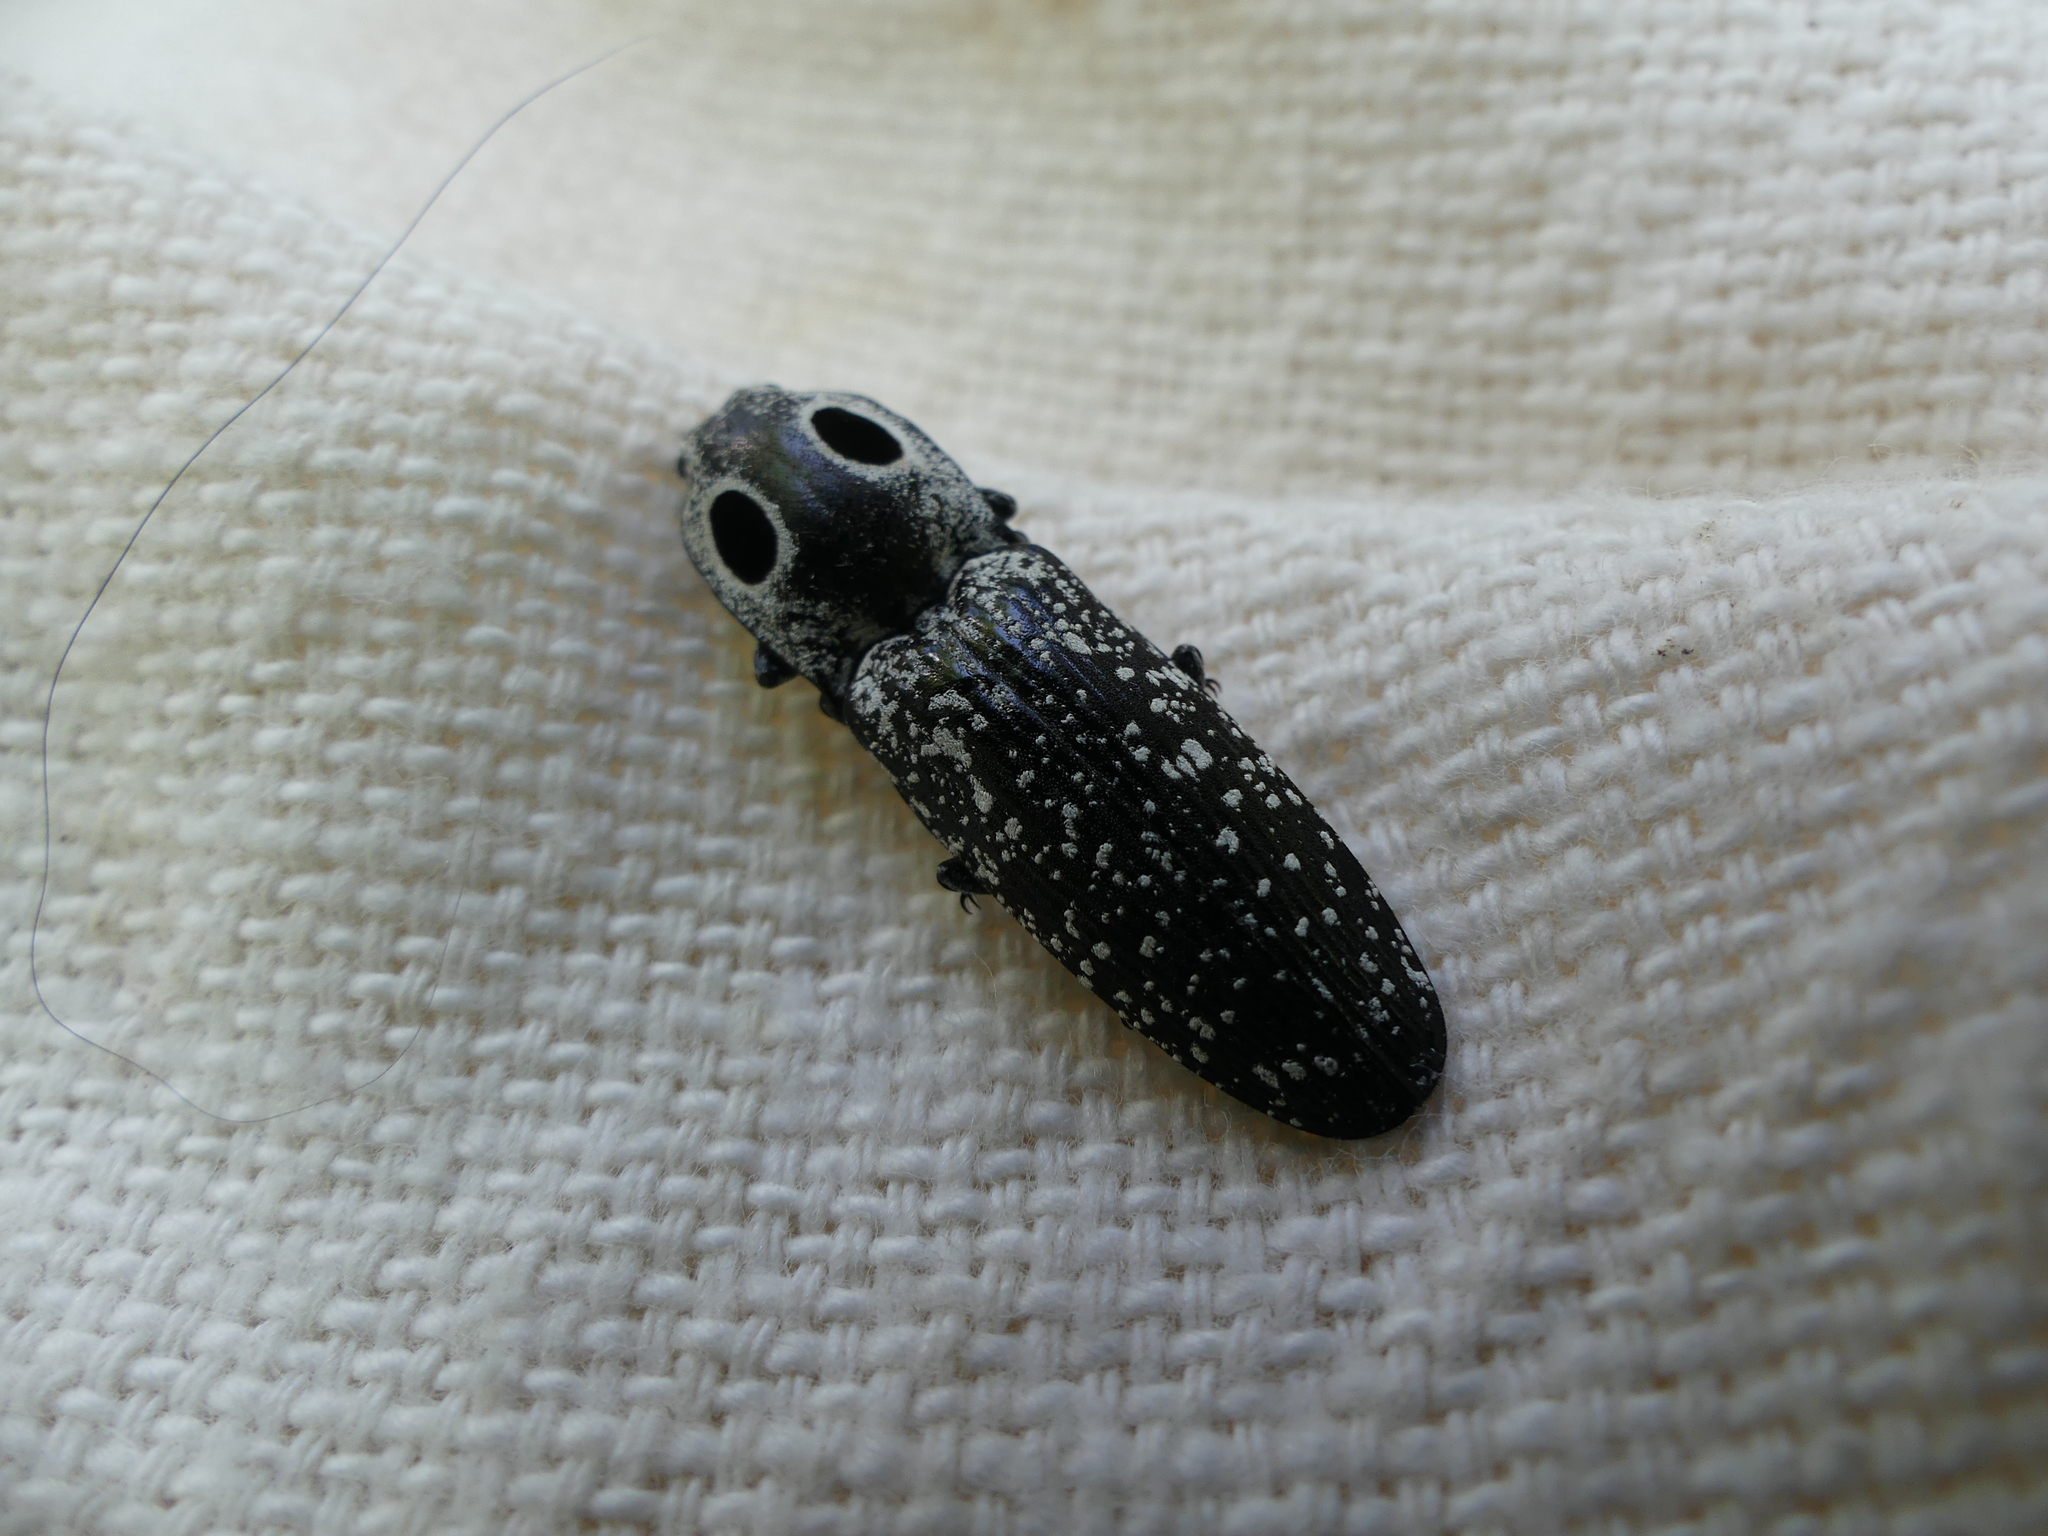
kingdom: Animalia
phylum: Arthropoda
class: Insecta
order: Coleoptera
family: Elateridae
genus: Alaus
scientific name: Alaus oculatus
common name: Eastern eyed click beetle
